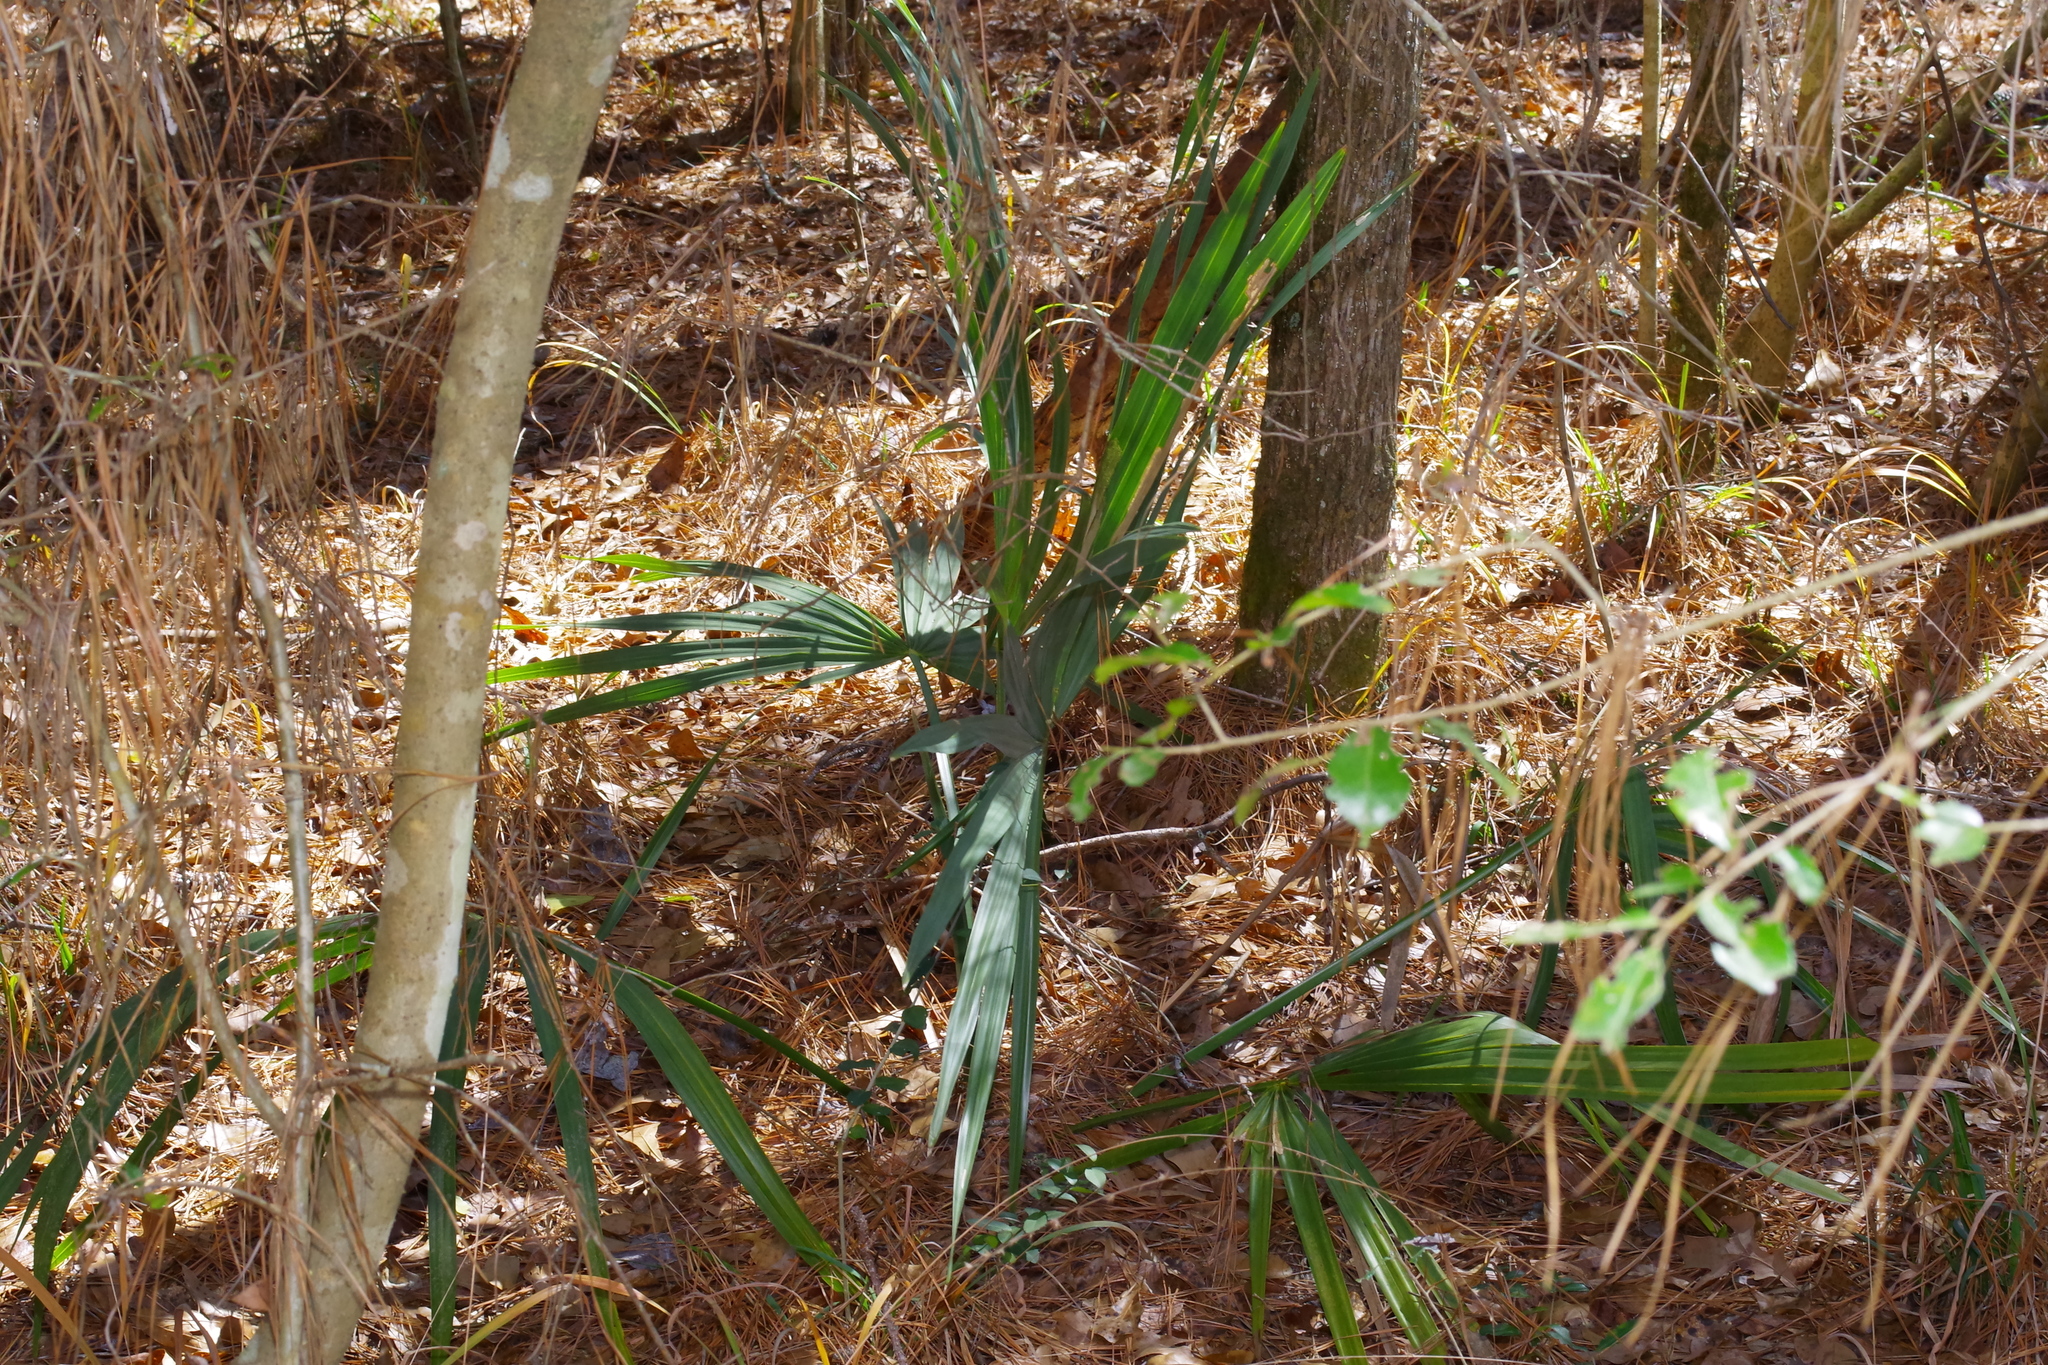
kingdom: Plantae
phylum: Tracheophyta
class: Liliopsida
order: Arecales
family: Arecaceae
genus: Sabal
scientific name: Sabal minor
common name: Dwarf palmetto
